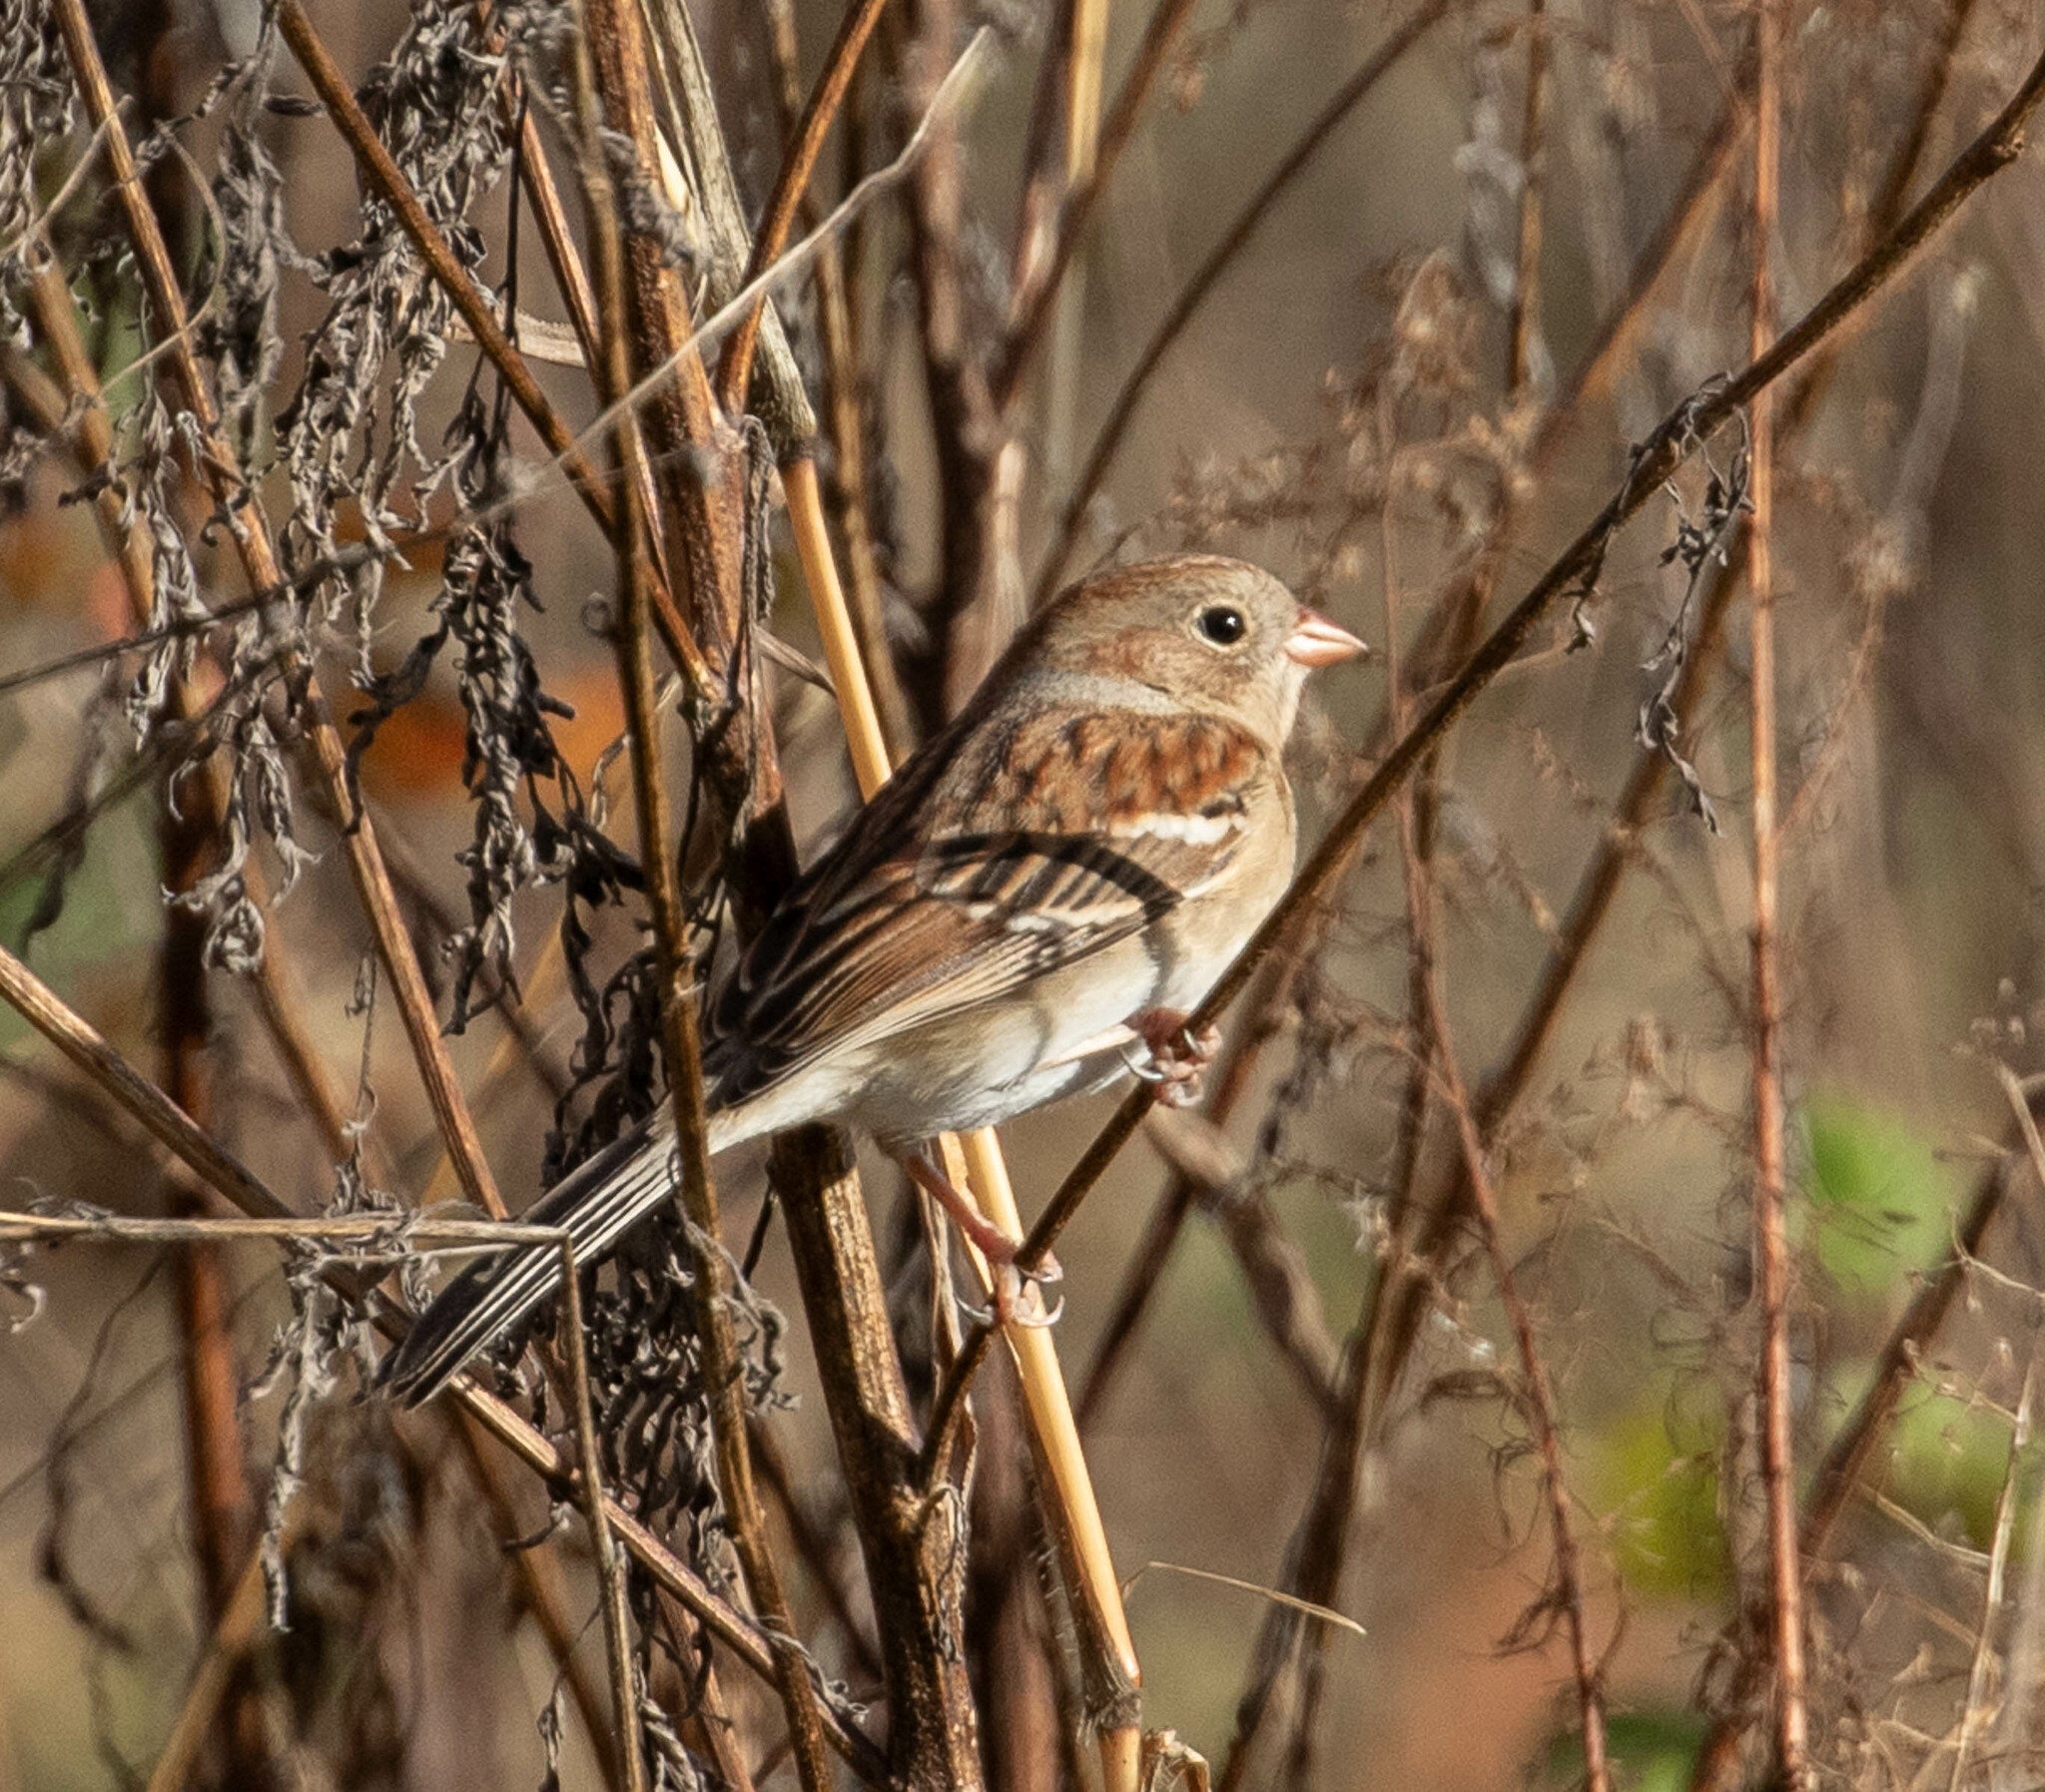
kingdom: Animalia
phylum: Chordata
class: Aves
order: Passeriformes
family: Passerellidae
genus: Spizella
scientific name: Spizella pusilla
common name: Field sparrow
